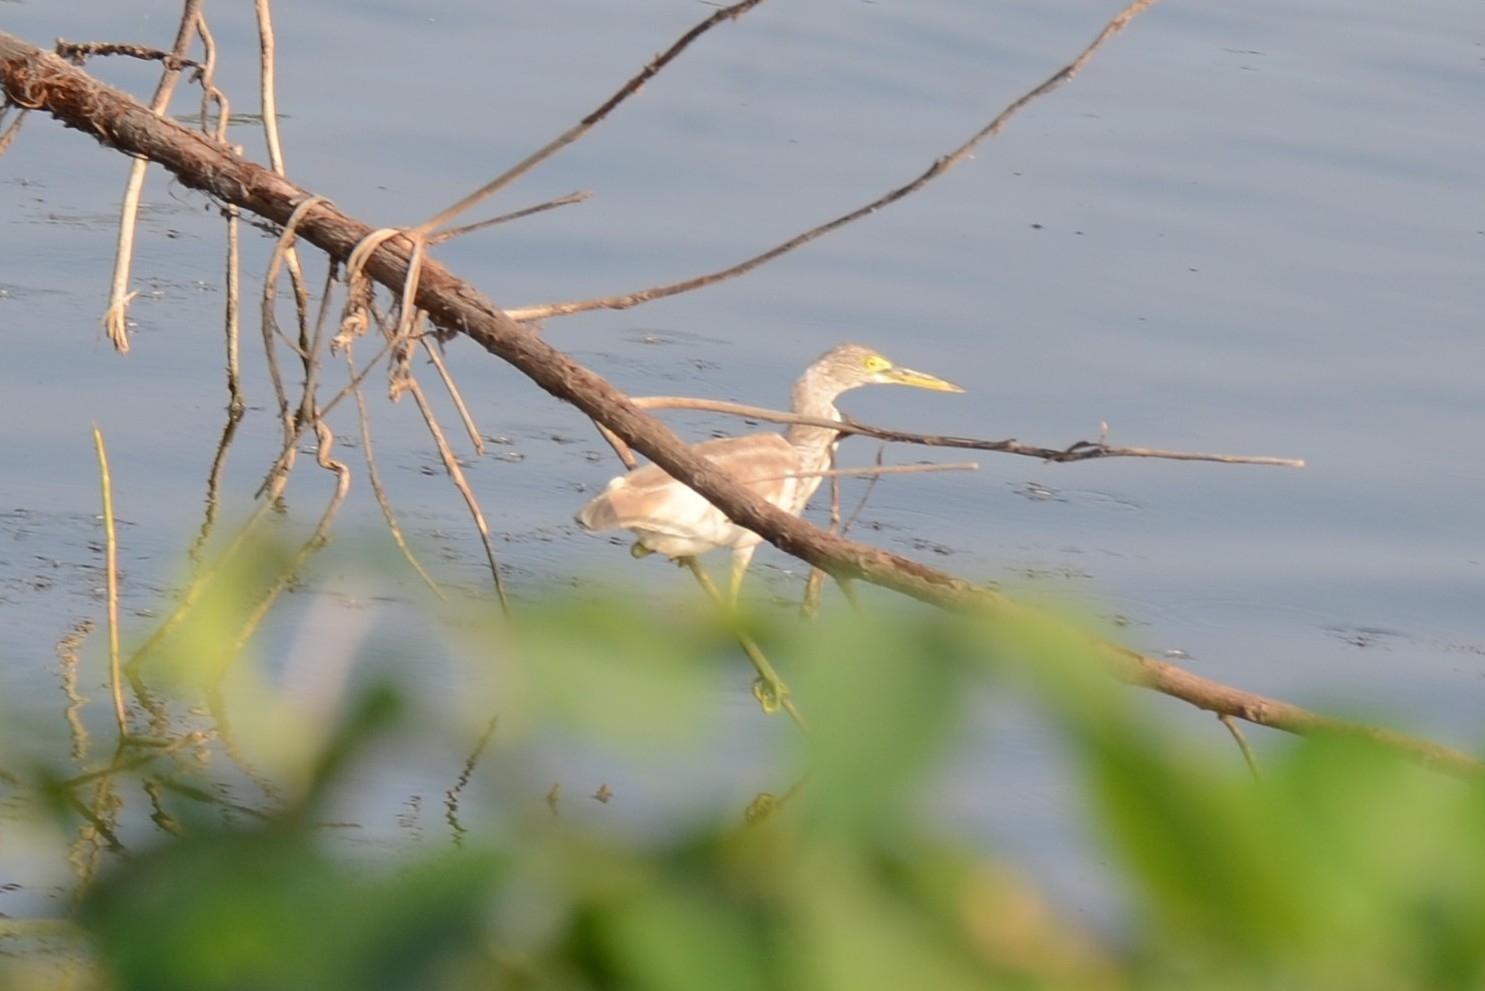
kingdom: Animalia
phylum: Chordata
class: Aves
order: Pelecaniformes
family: Ardeidae
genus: Ardeola
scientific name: Ardeola grayii
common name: Indian pond heron
